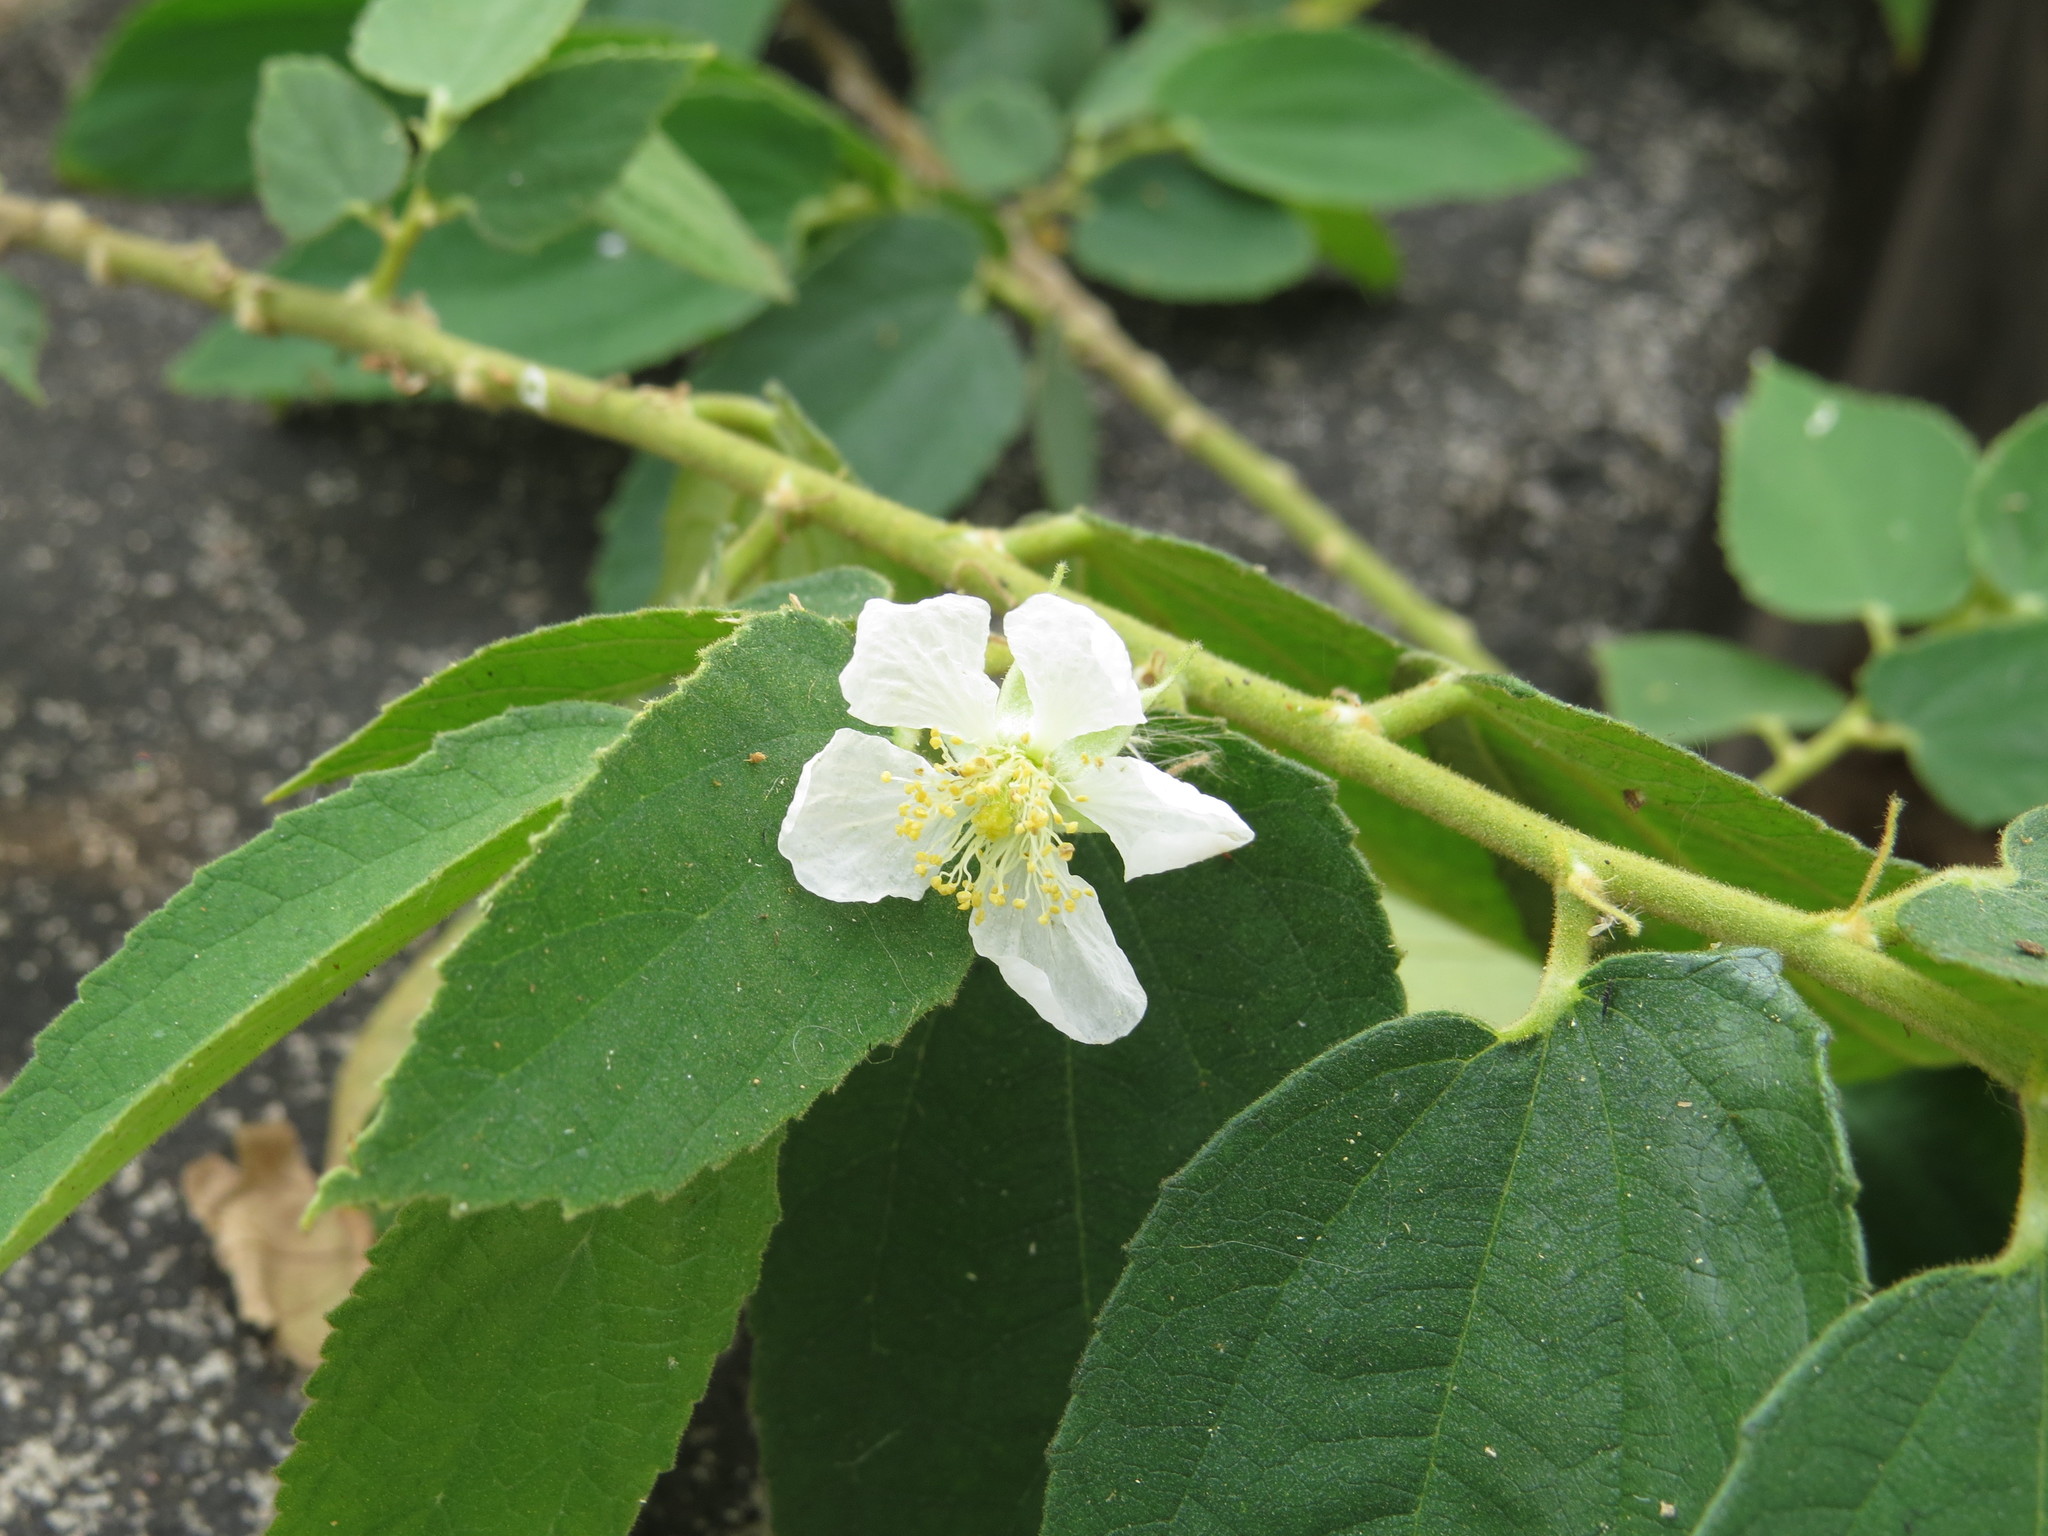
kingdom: Plantae
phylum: Tracheophyta
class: Magnoliopsida
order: Malvales
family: Muntingiaceae
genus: Muntingia
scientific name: Muntingia calabura
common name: Strawberrytree
